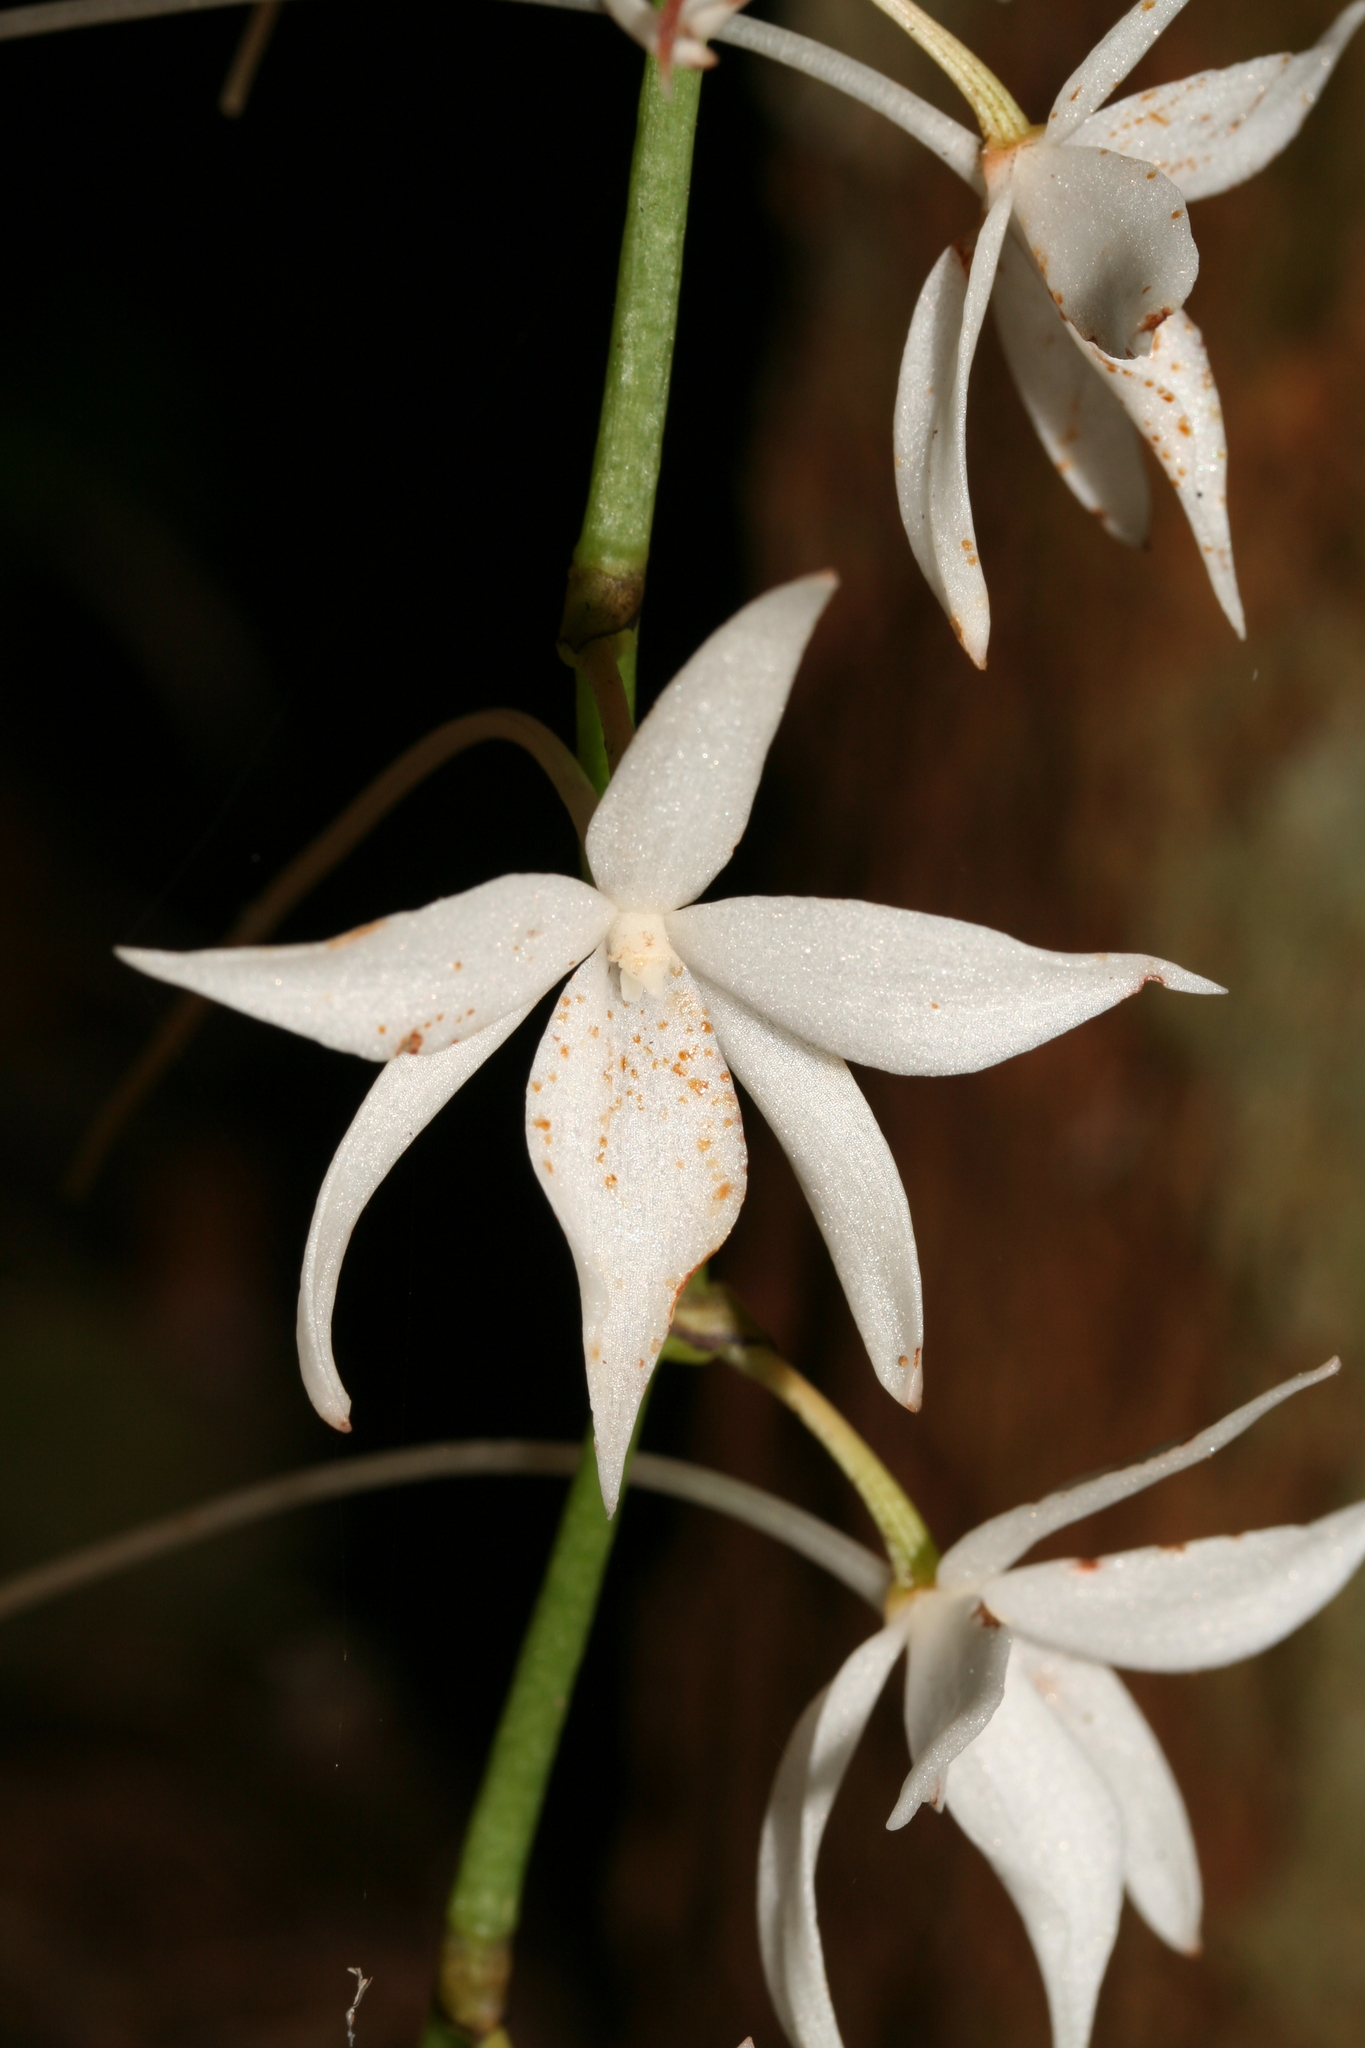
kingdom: Plantae
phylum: Tracheophyta
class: Liliopsida
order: Asparagales
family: Orchidaceae
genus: Aerangis
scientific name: Aerangis articulata
